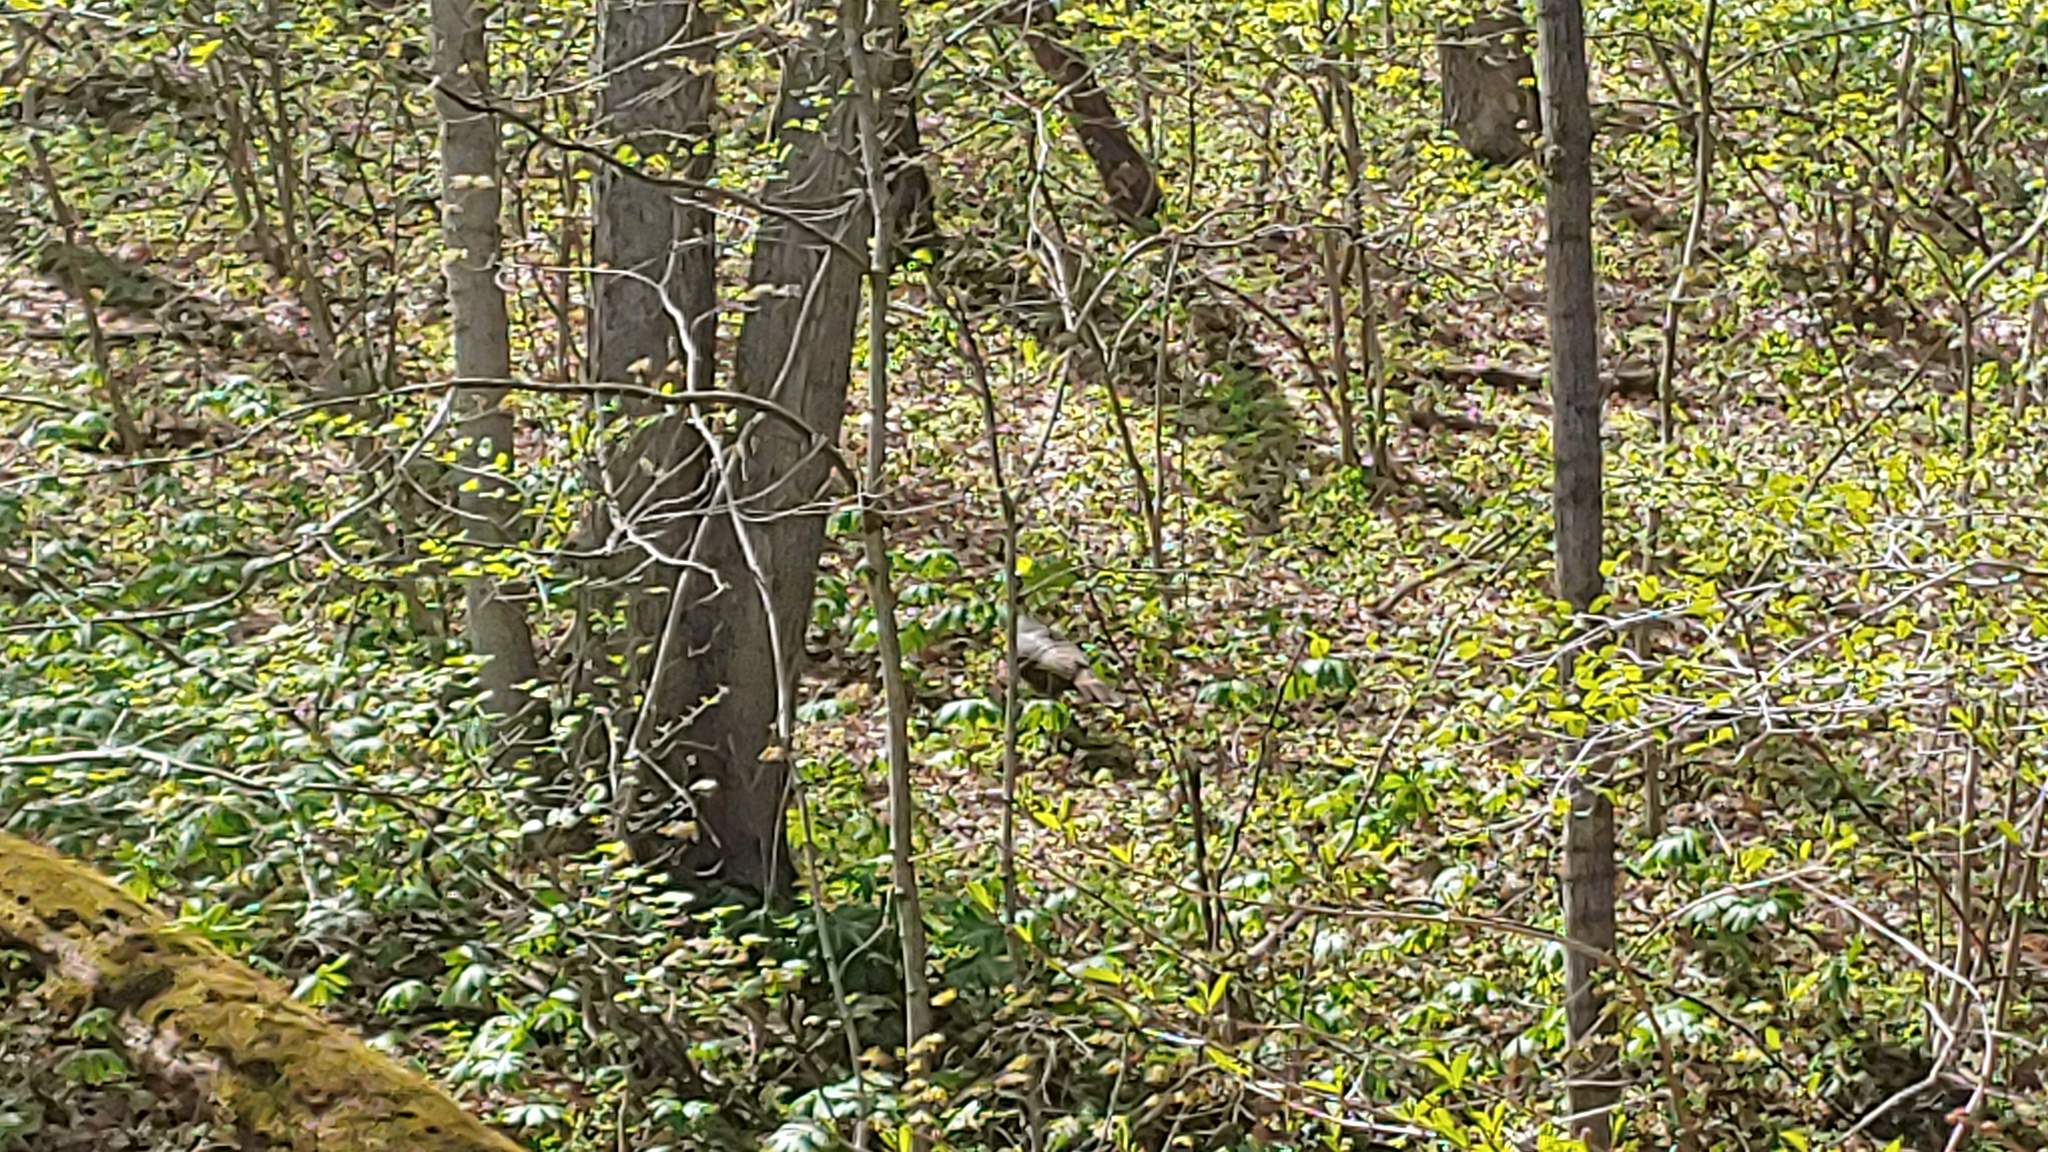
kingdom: Animalia
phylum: Chordata
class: Aves
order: Galliformes
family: Phasianidae
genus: Meleagris
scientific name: Meleagris gallopavo
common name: Wild turkey
